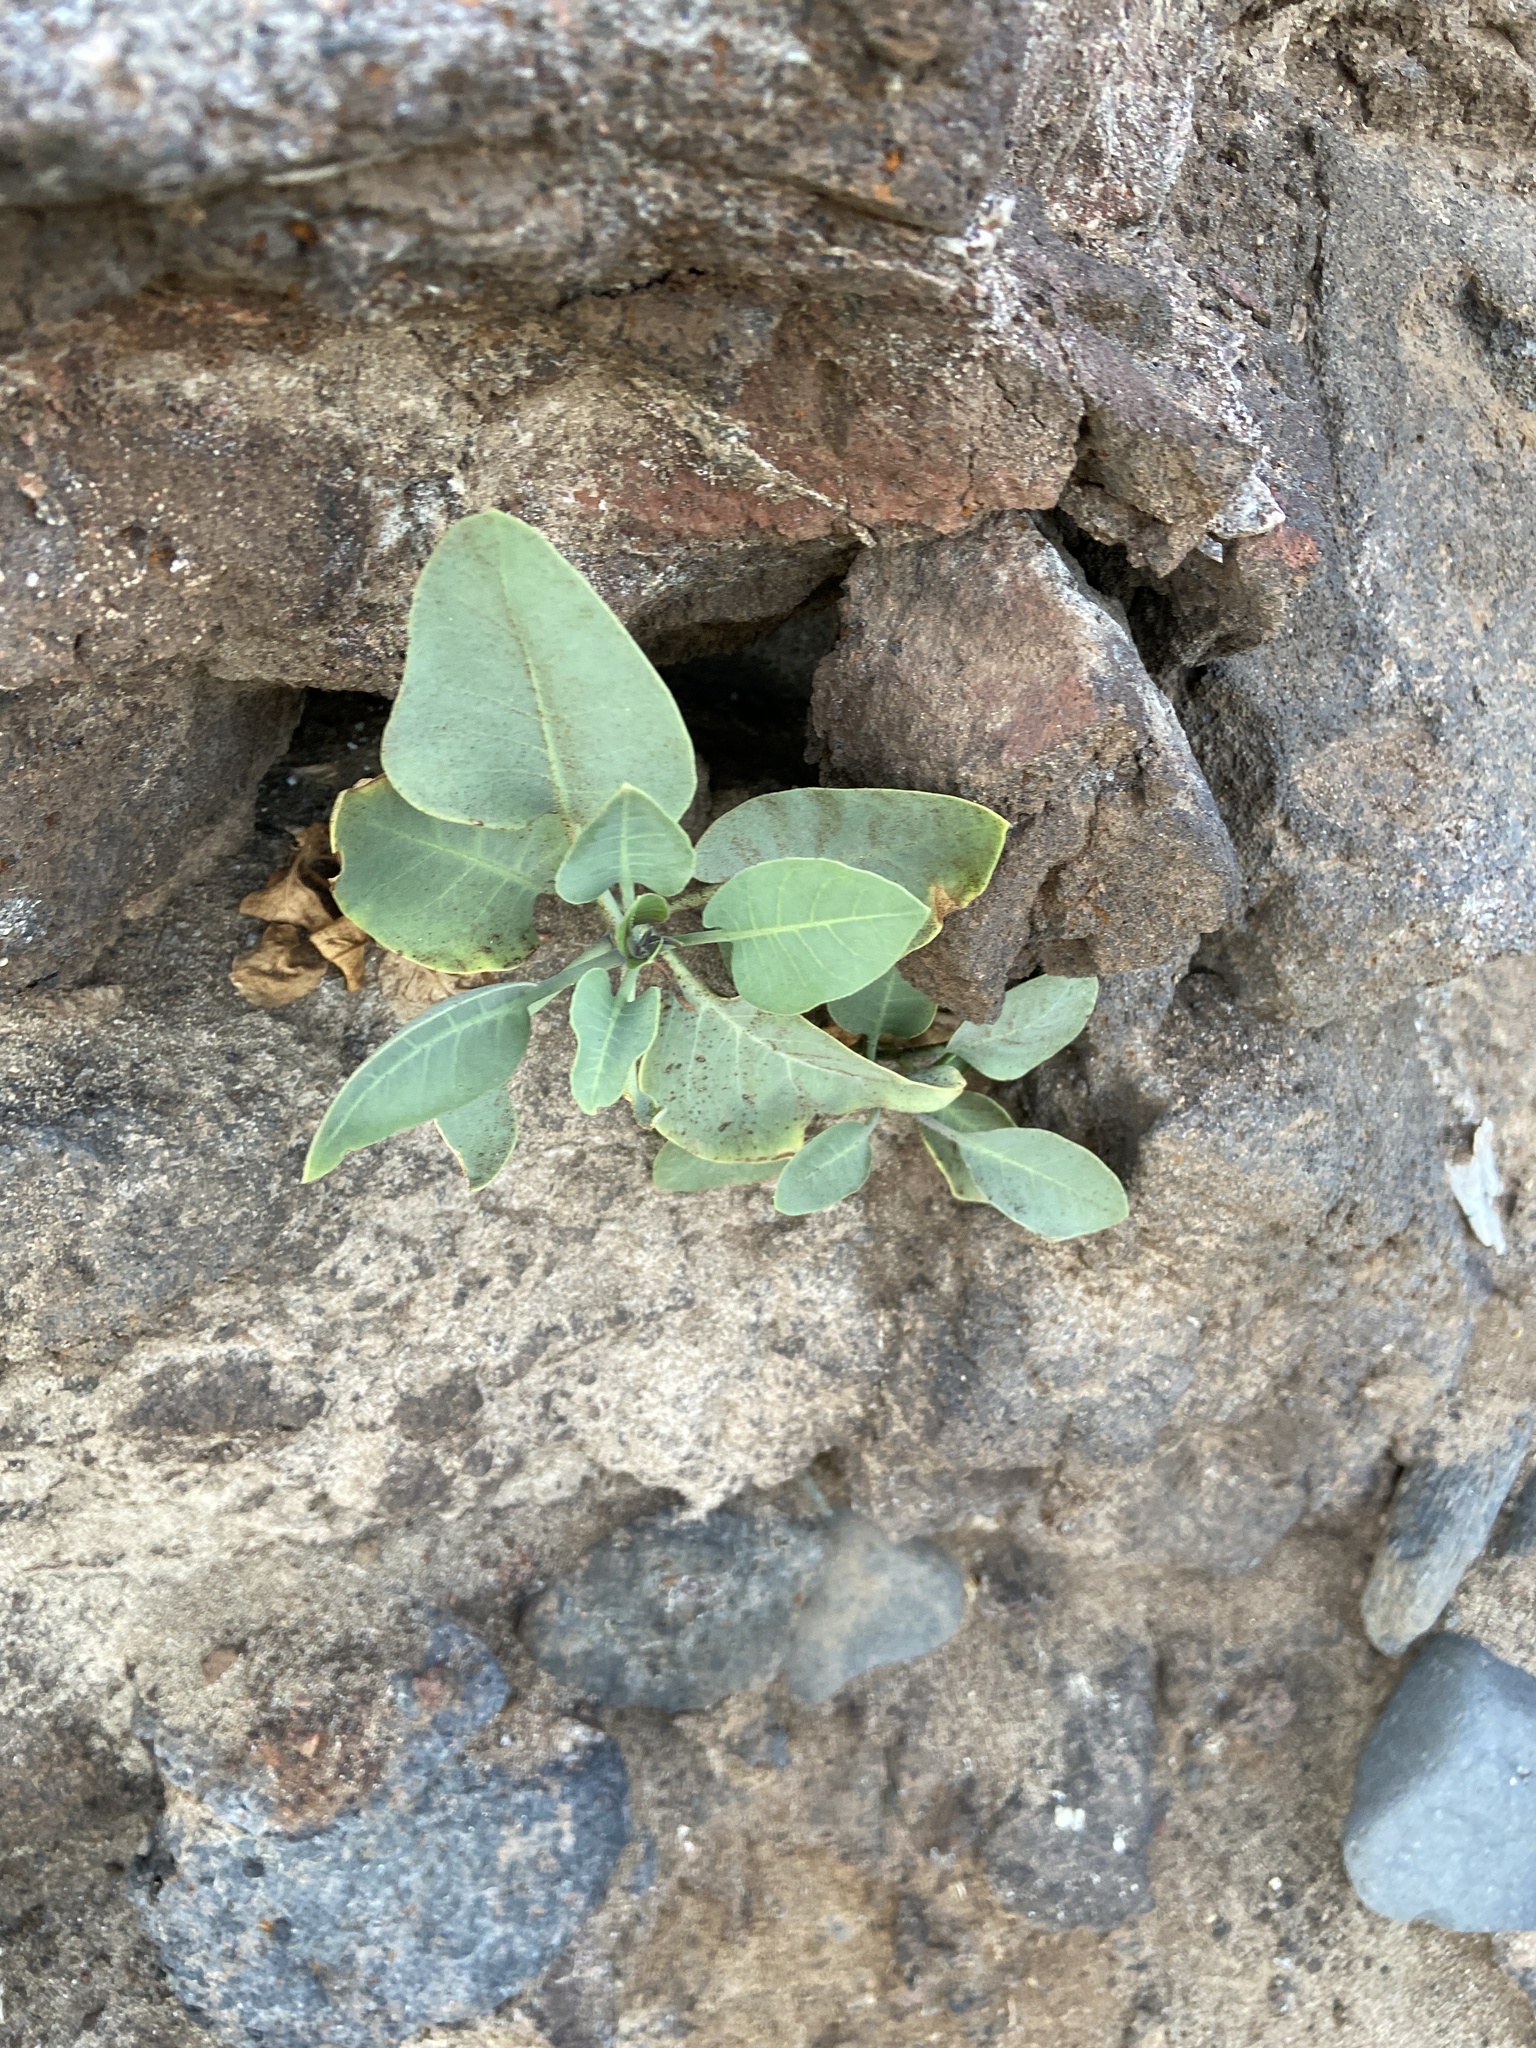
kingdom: Plantae
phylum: Tracheophyta
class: Magnoliopsida
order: Solanales
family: Solanaceae
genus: Nicotiana
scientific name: Nicotiana glauca
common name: Tree tobacco
